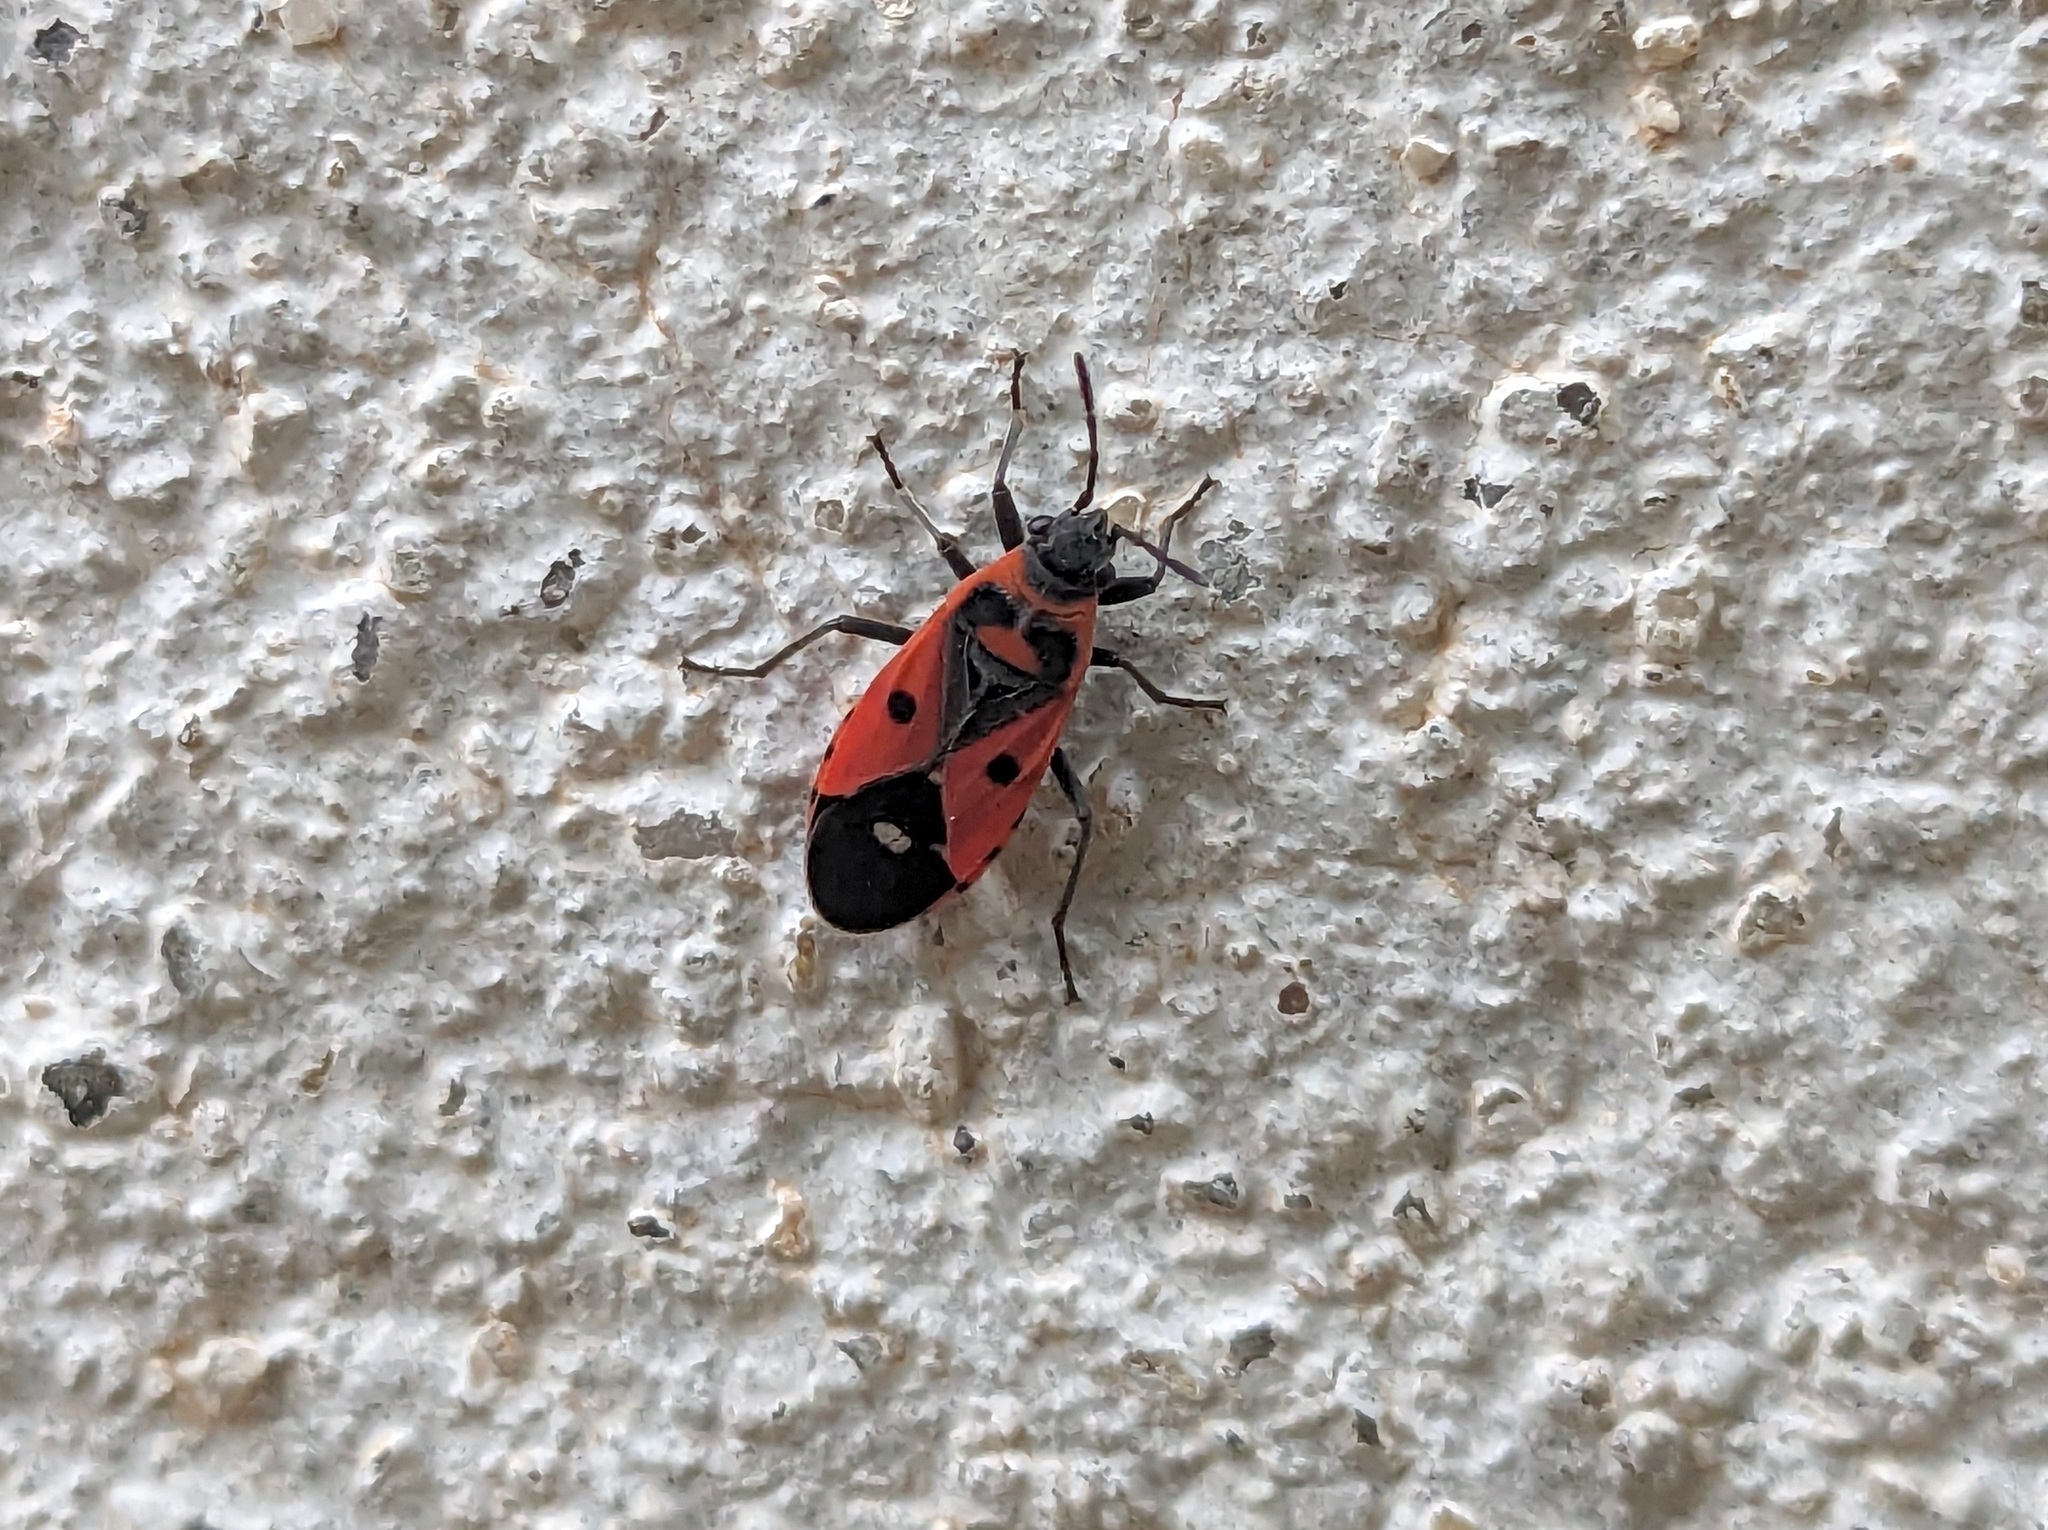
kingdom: Animalia
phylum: Arthropoda
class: Insecta
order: Hemiptera
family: Lygaeidae
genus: Melanocoryphus
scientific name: Melanocoryphus albomaculatus
